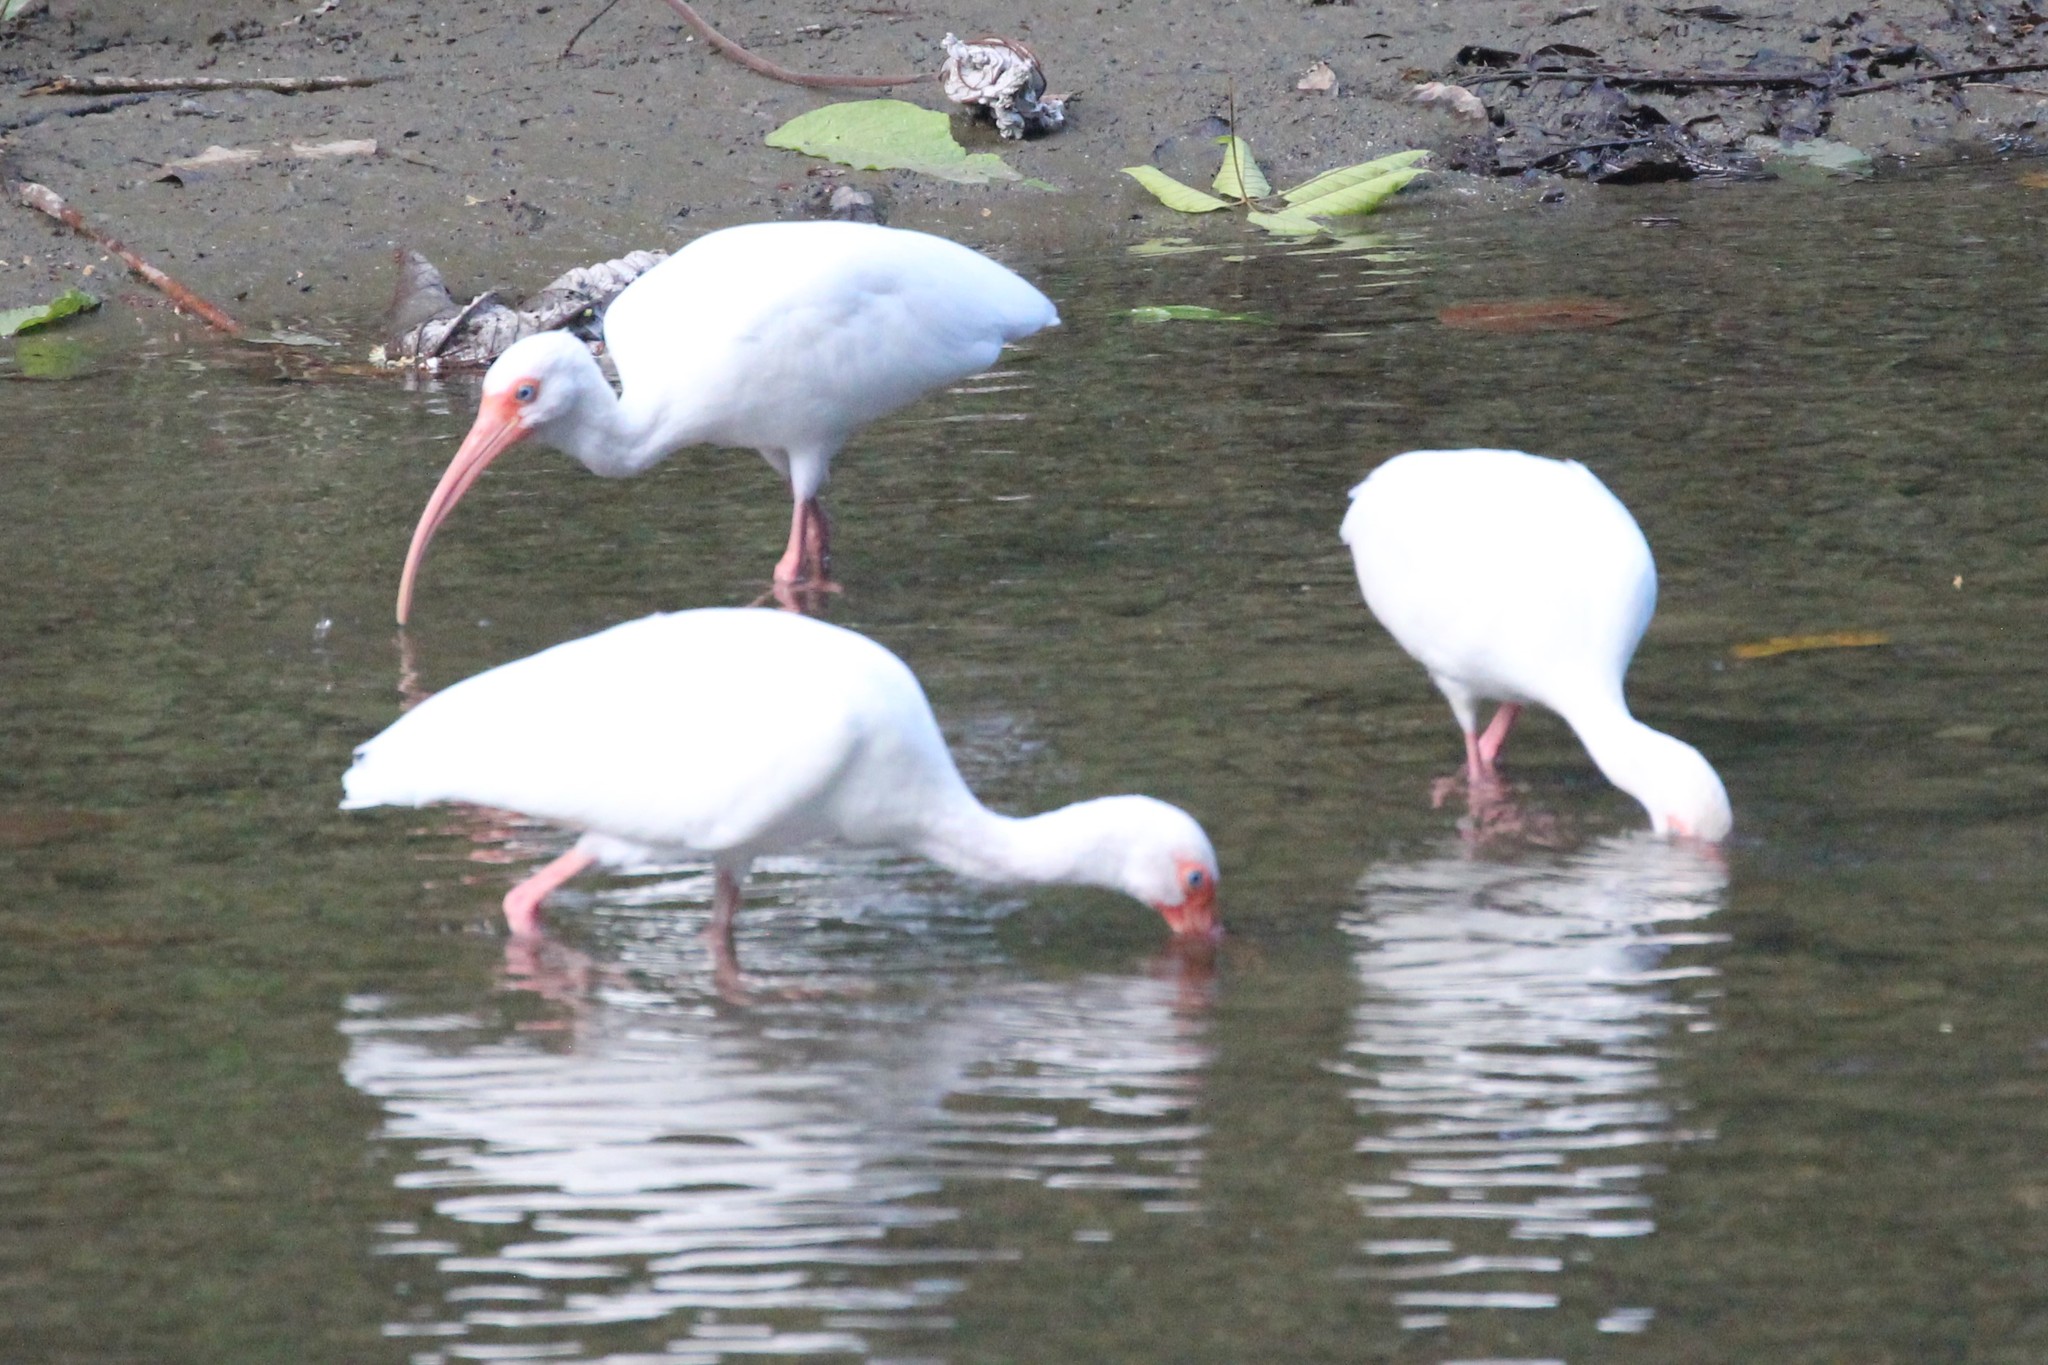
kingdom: Animalia
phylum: Chordata
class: Aves
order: Pelecaniformes
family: Threskiornithidae
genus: Eudocimus
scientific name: Eudocimus albus
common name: White ibis
